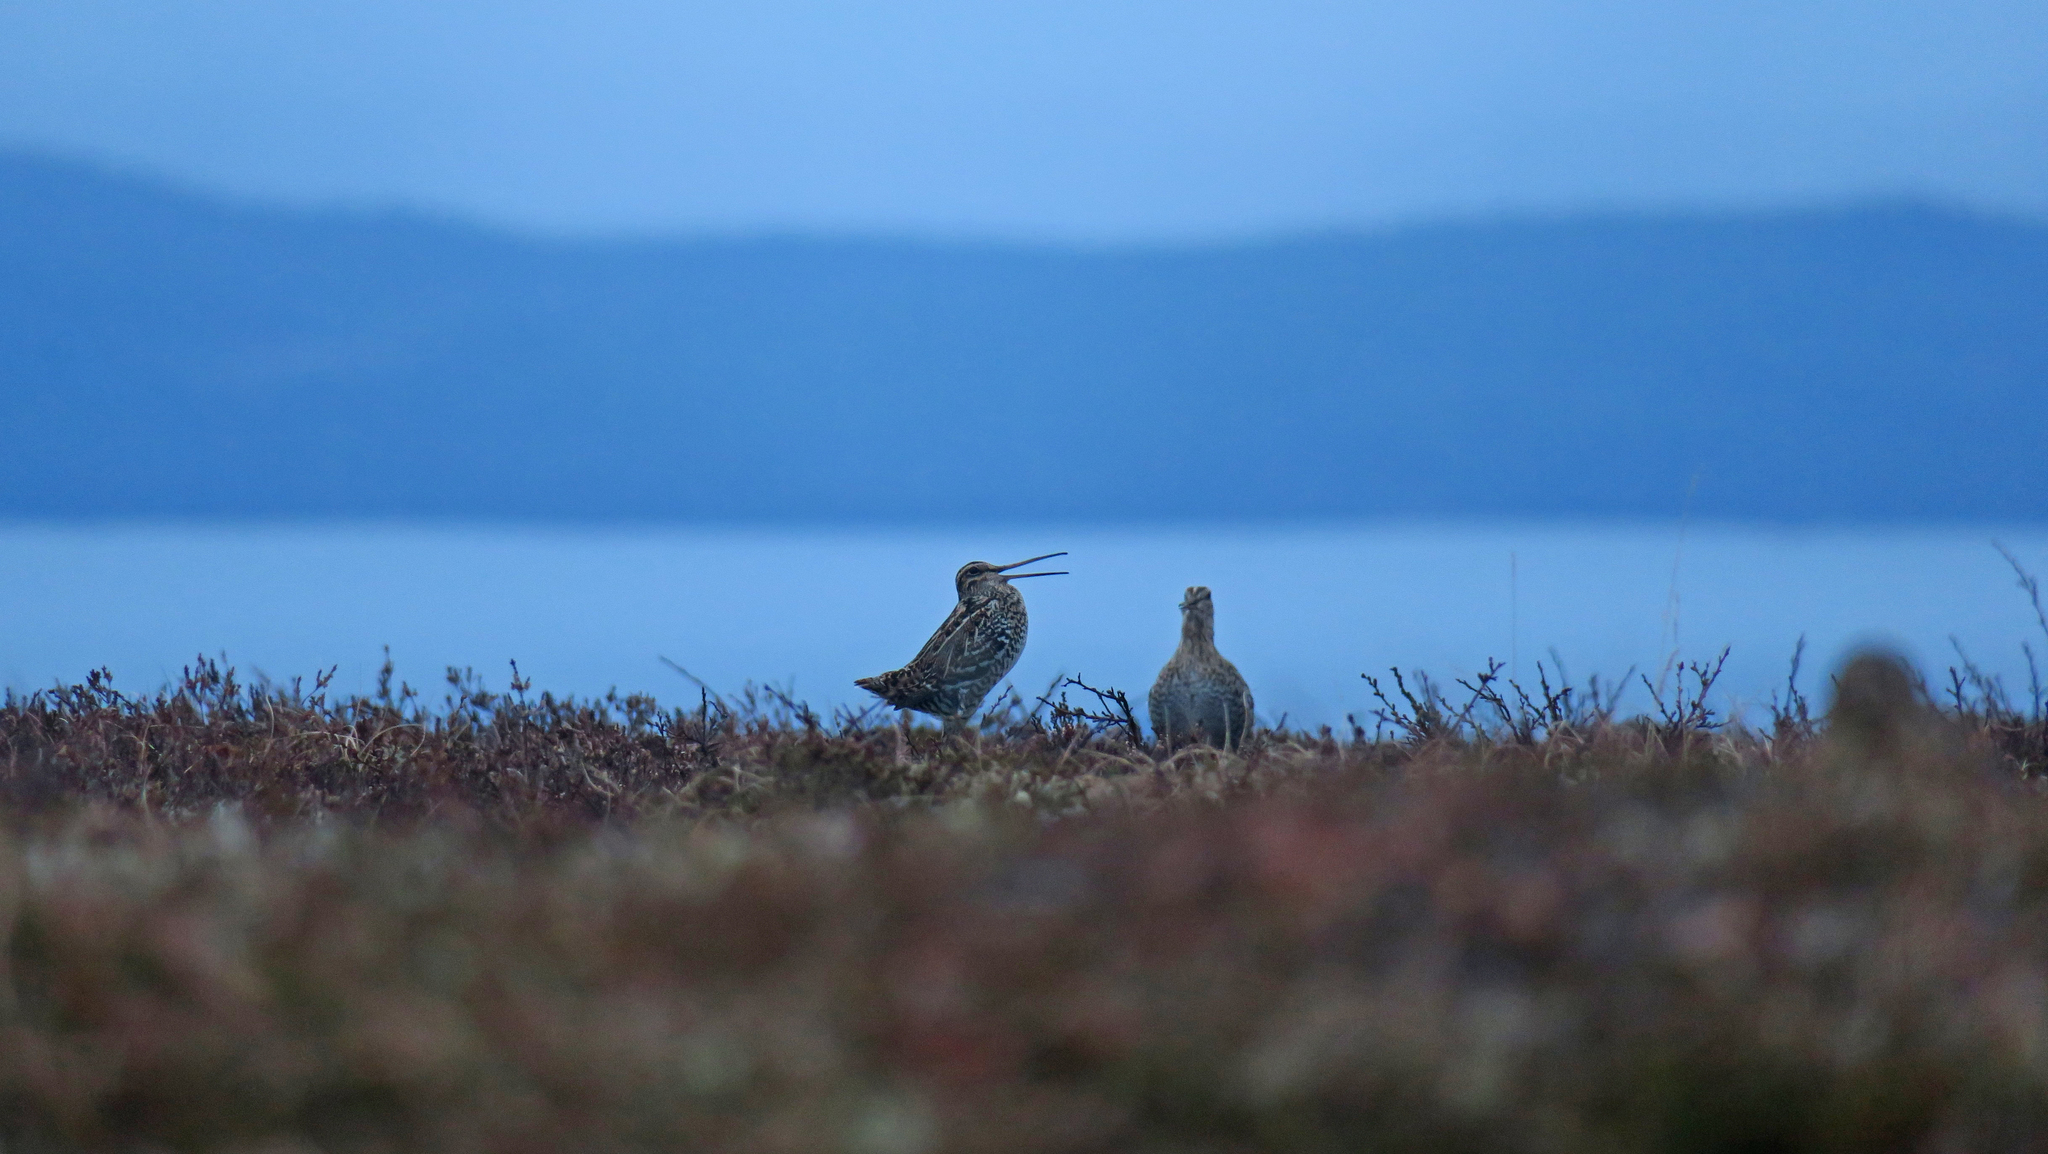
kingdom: Animalia
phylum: Chordata
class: Aves
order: Charadriiformes
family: Scolopacidae
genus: Gallinago
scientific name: Gallinago media
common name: Great snipe
